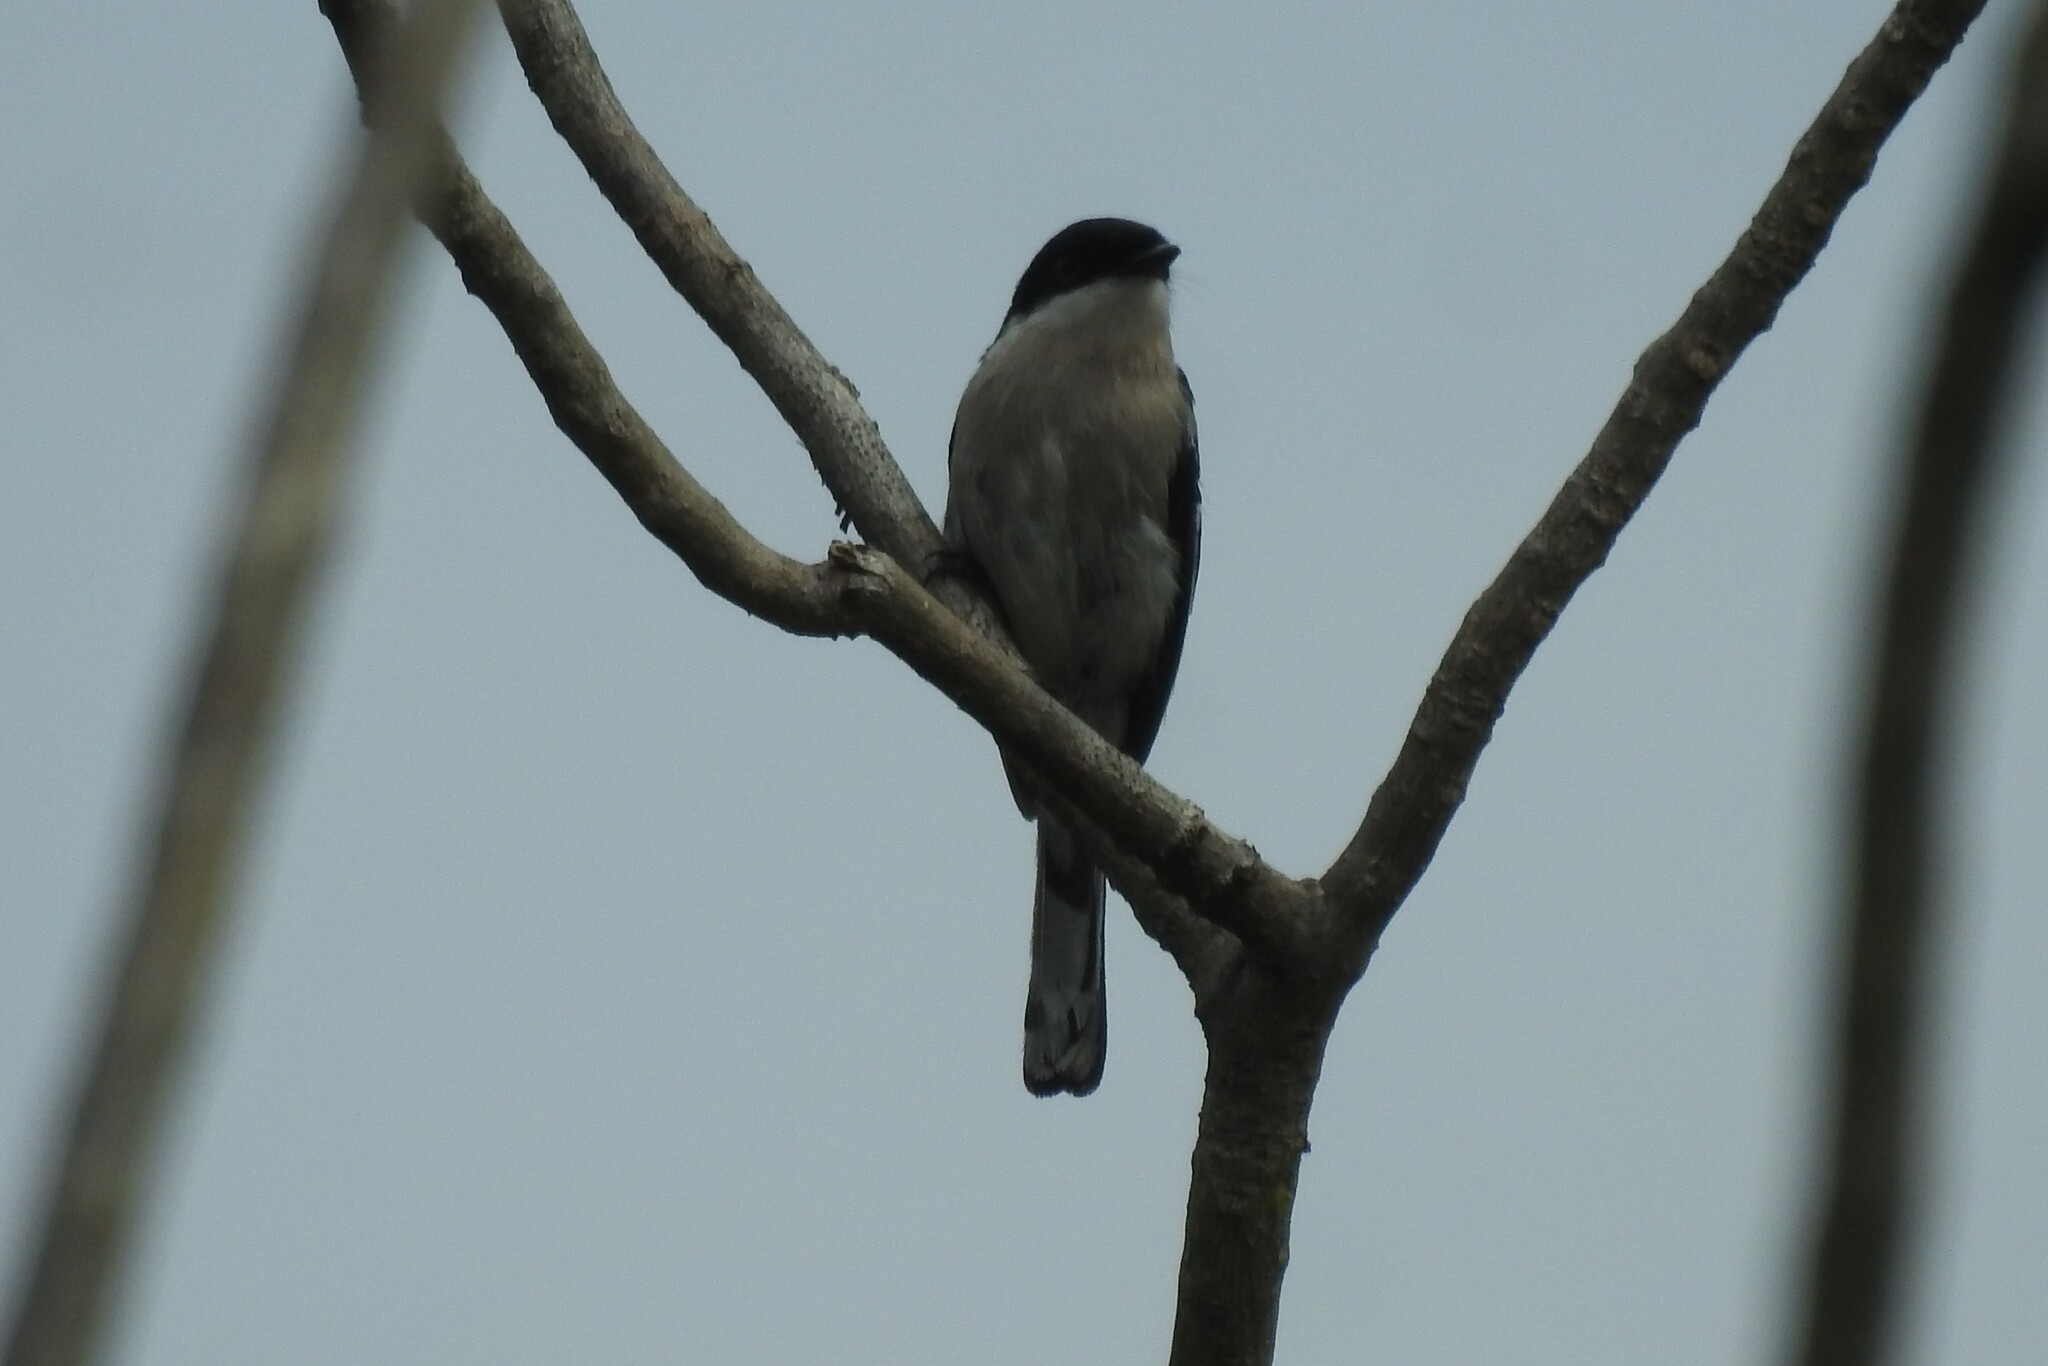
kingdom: Animalia
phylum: Chordata
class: Aves
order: Passeriformes
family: Tephrodornithidae
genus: Hemipus
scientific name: Hemipus picatus
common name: Bar-winged flycatcher-shrike
